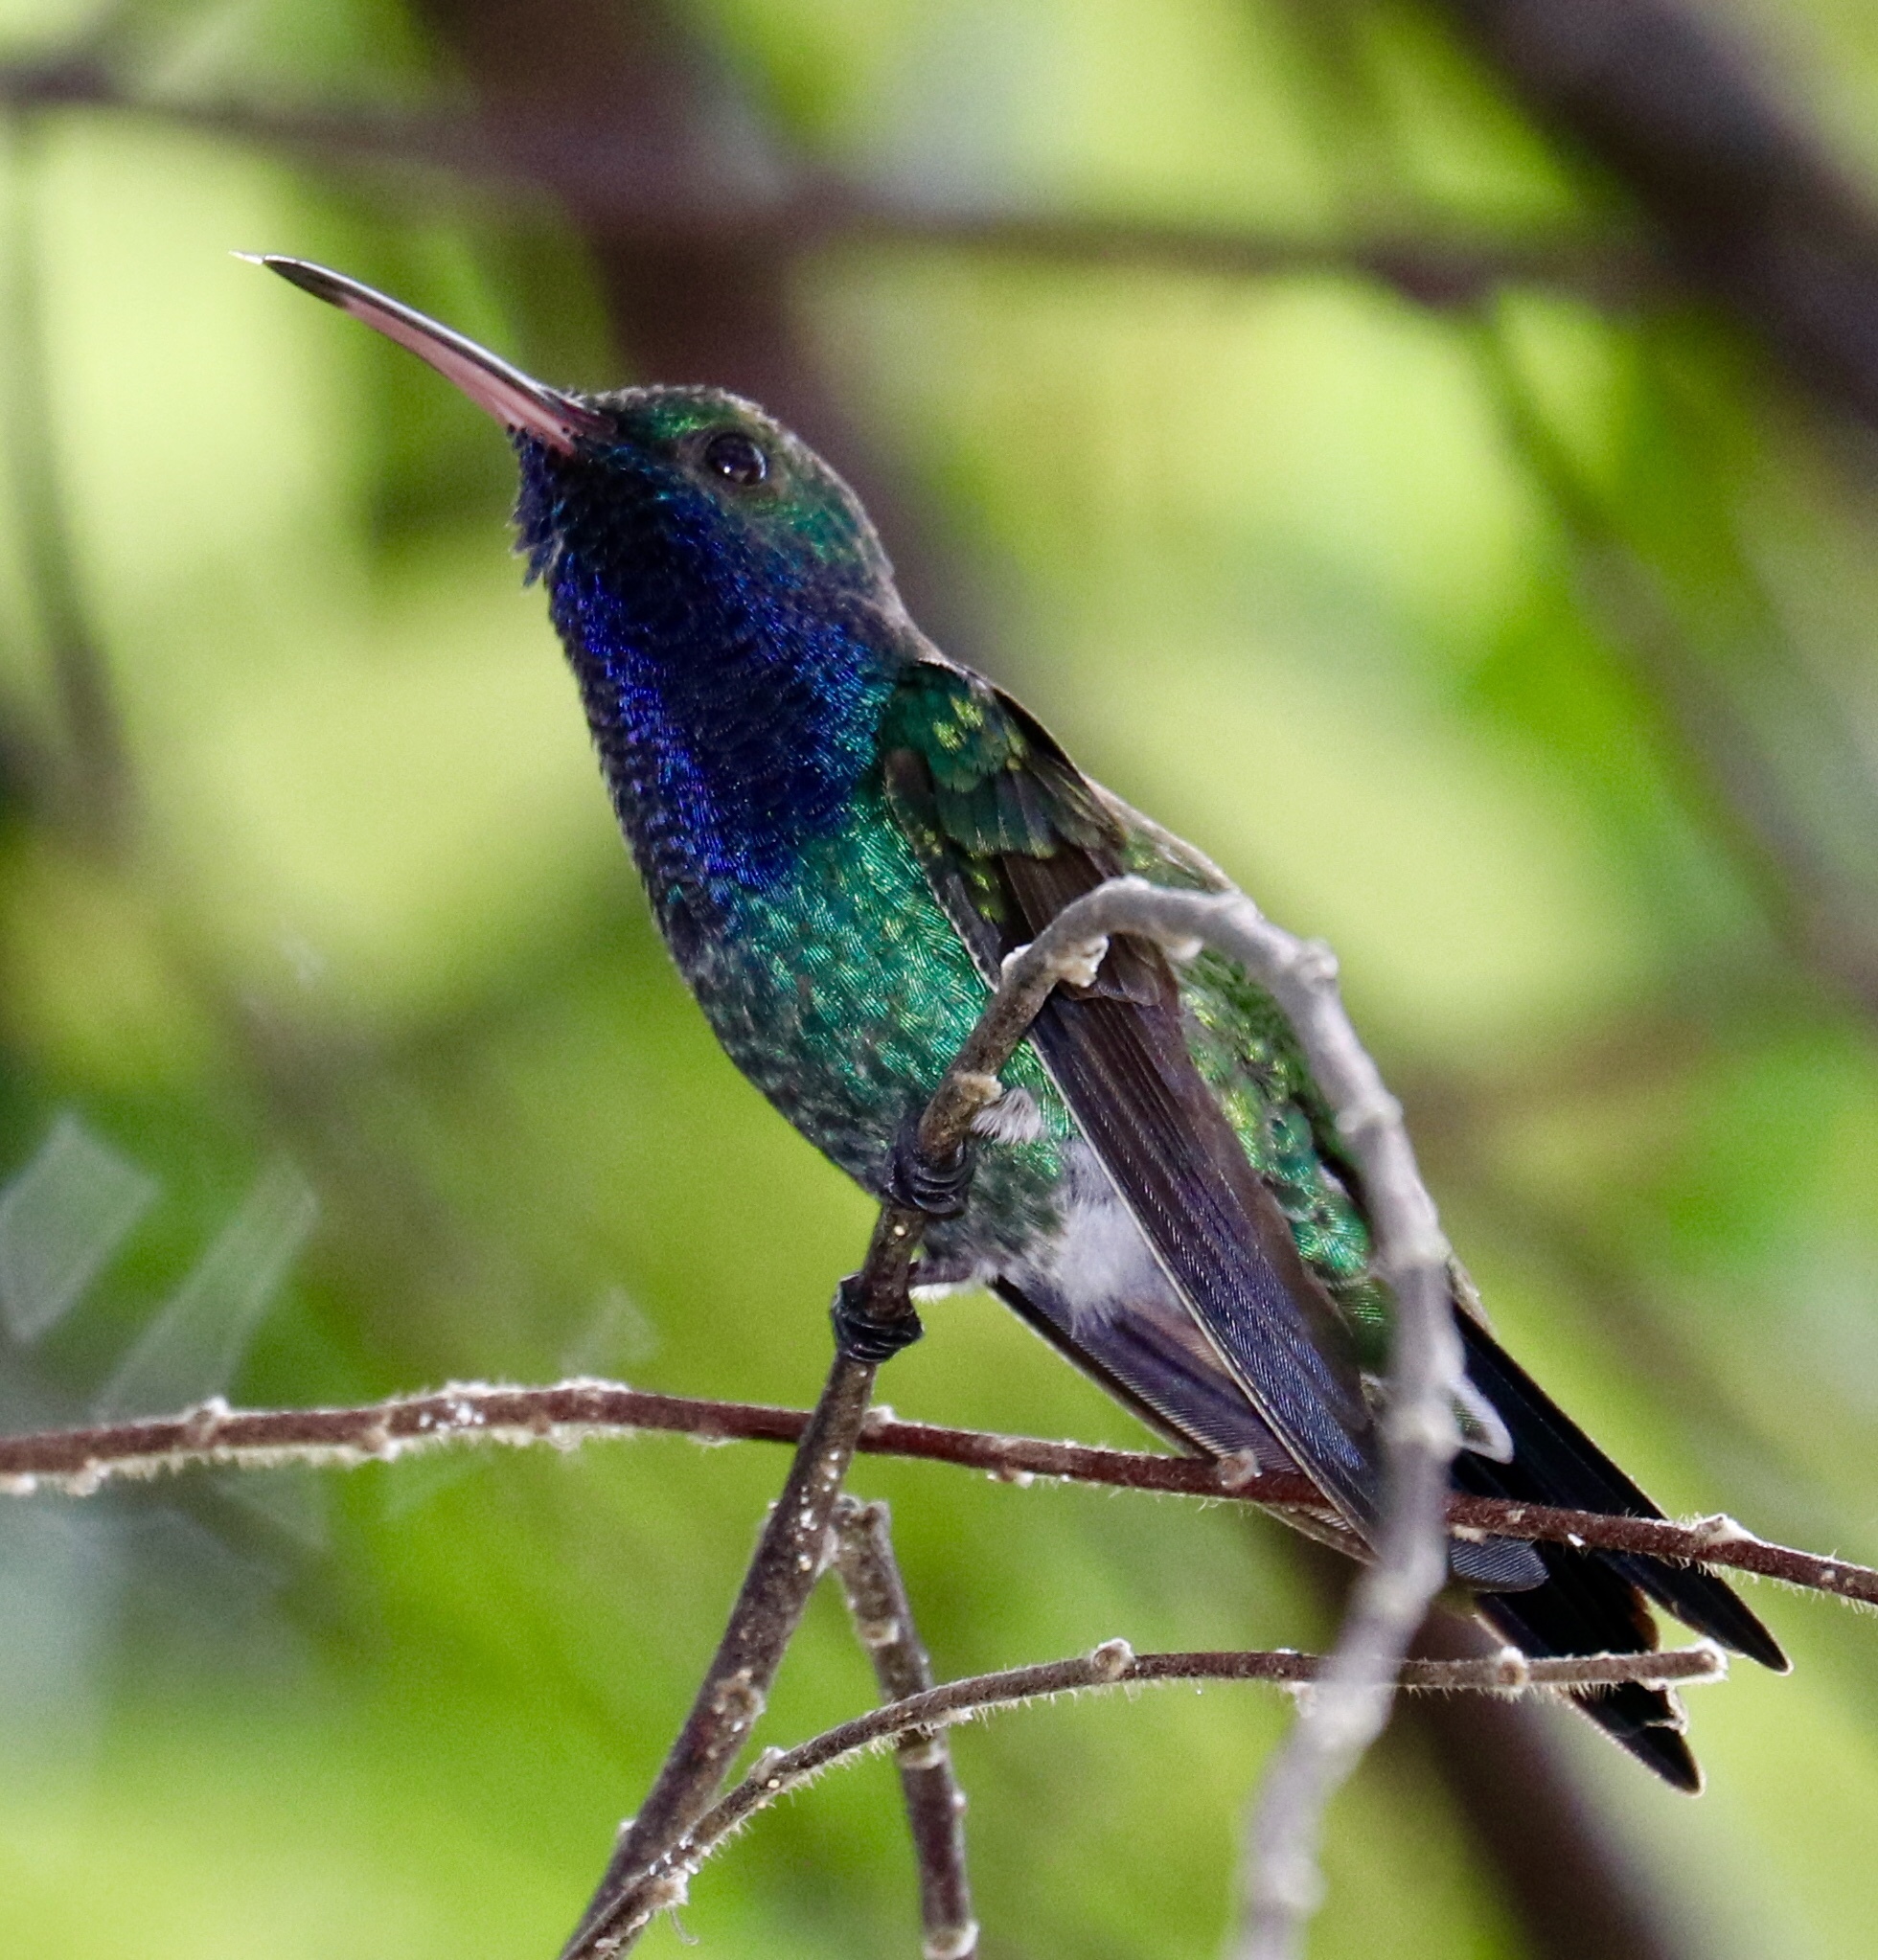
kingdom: Animalia
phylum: Chordata
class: Aves
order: Apodiformes
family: Trochilidae
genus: Chrysuronia
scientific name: Chrysuronia coeruleogularis
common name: Sapphire-throated hummingbird
